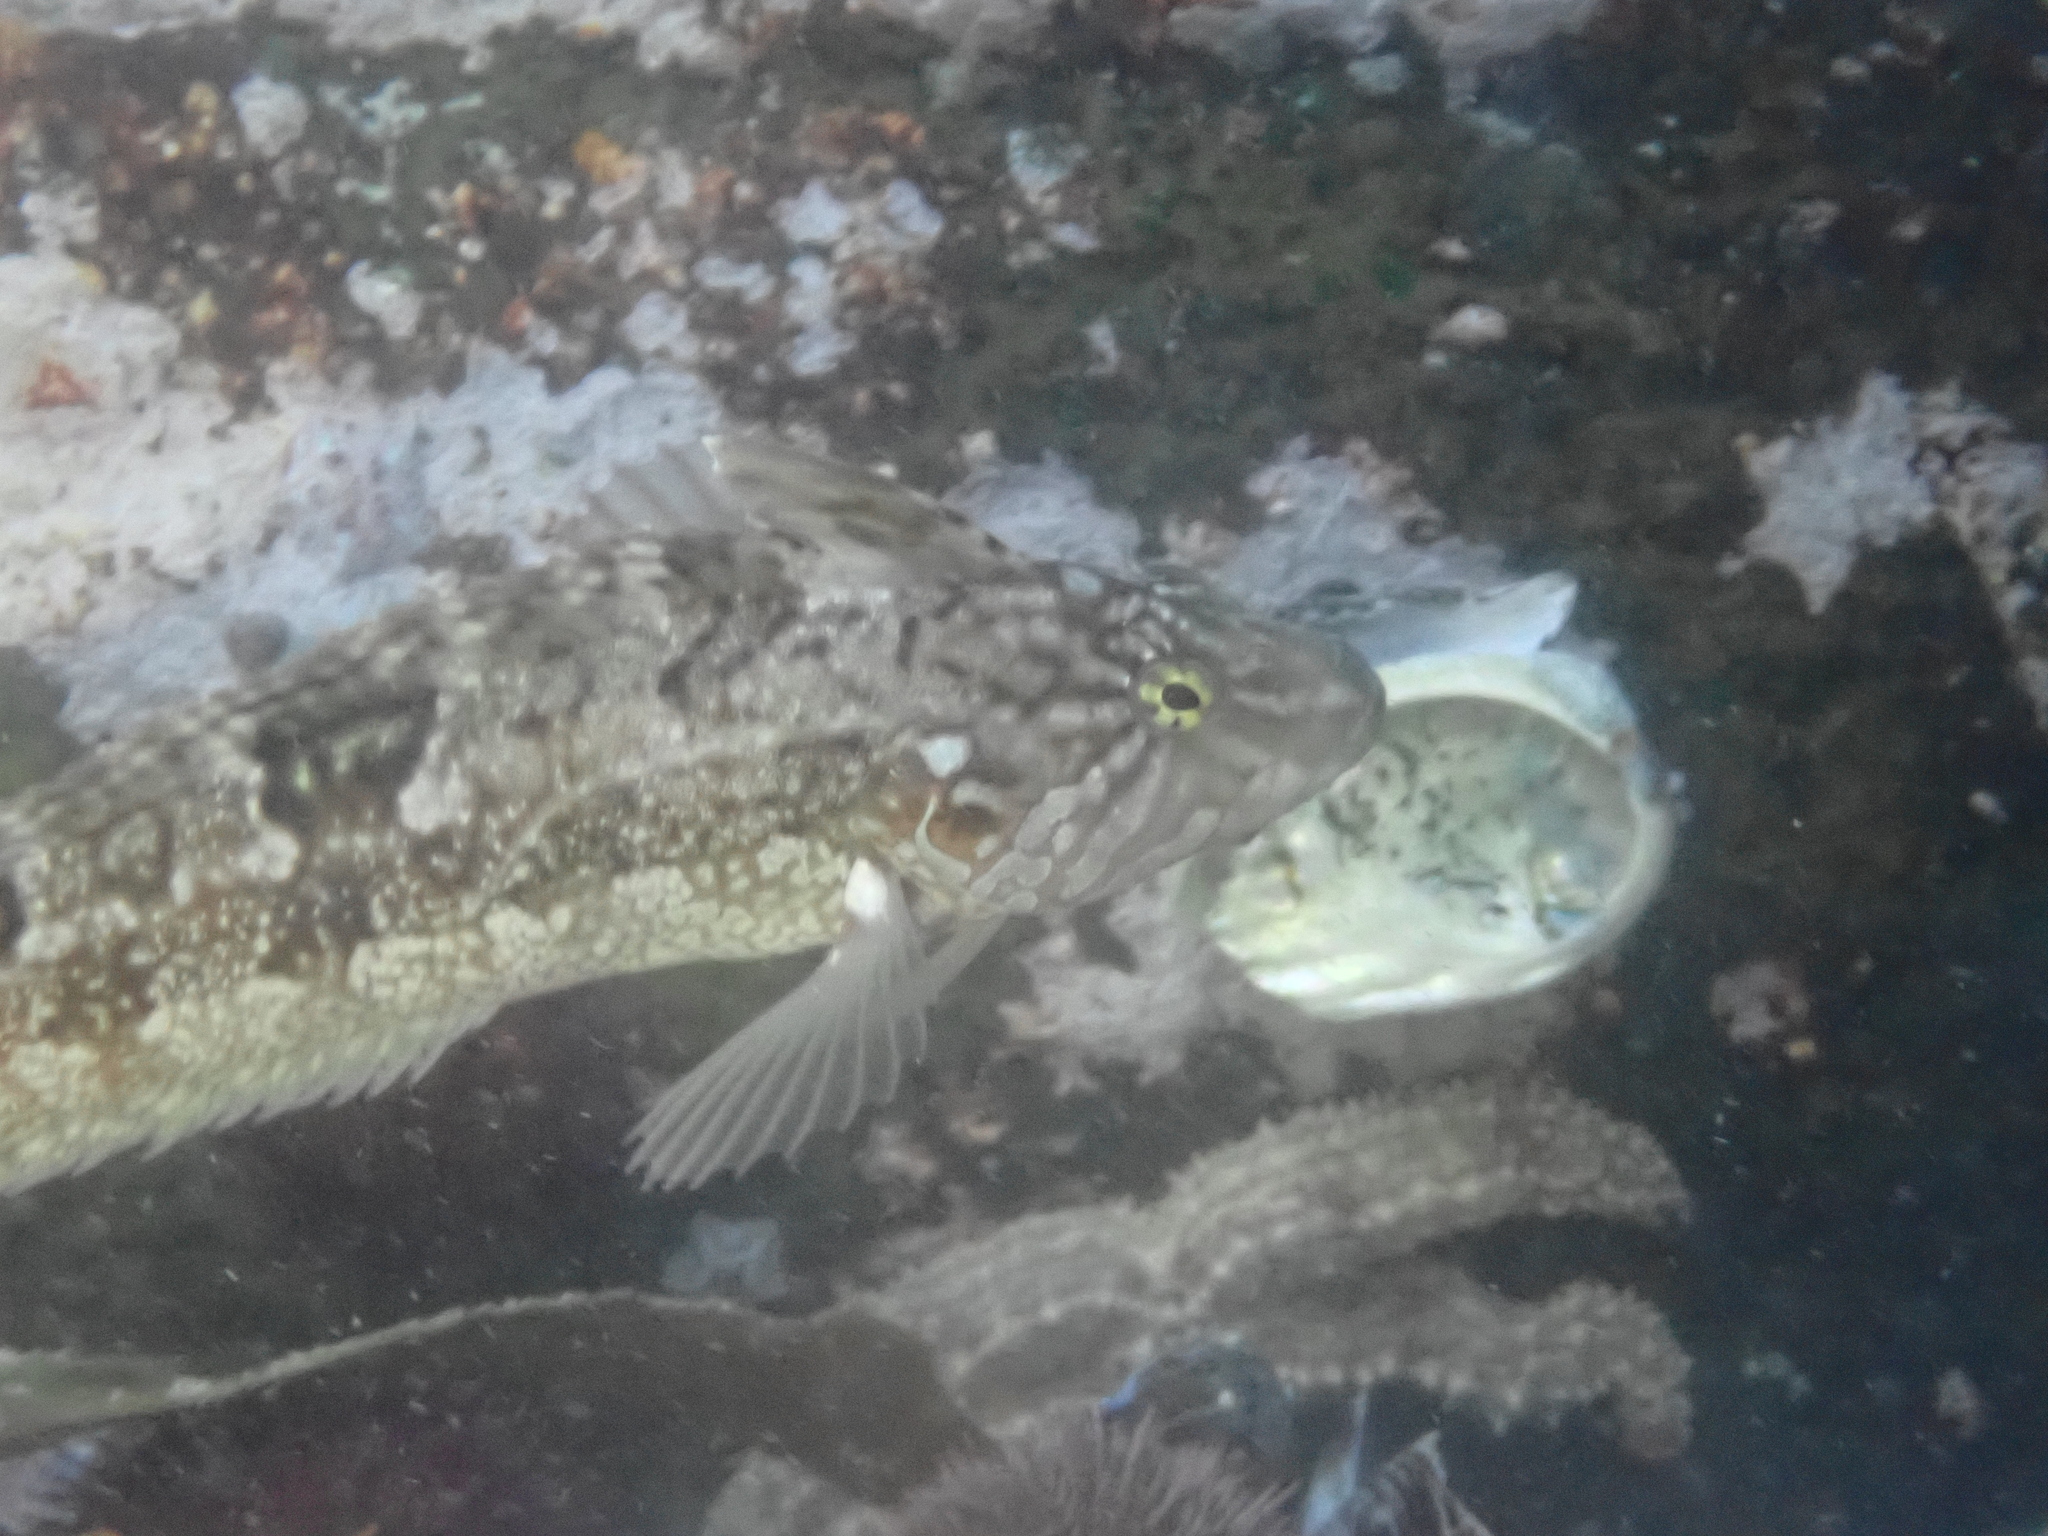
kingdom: Animalia
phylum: Echinodermata
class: Asteroidea
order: Forcipulatida
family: Asteriidae
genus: Marthasterias
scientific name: Marthasterias africana
